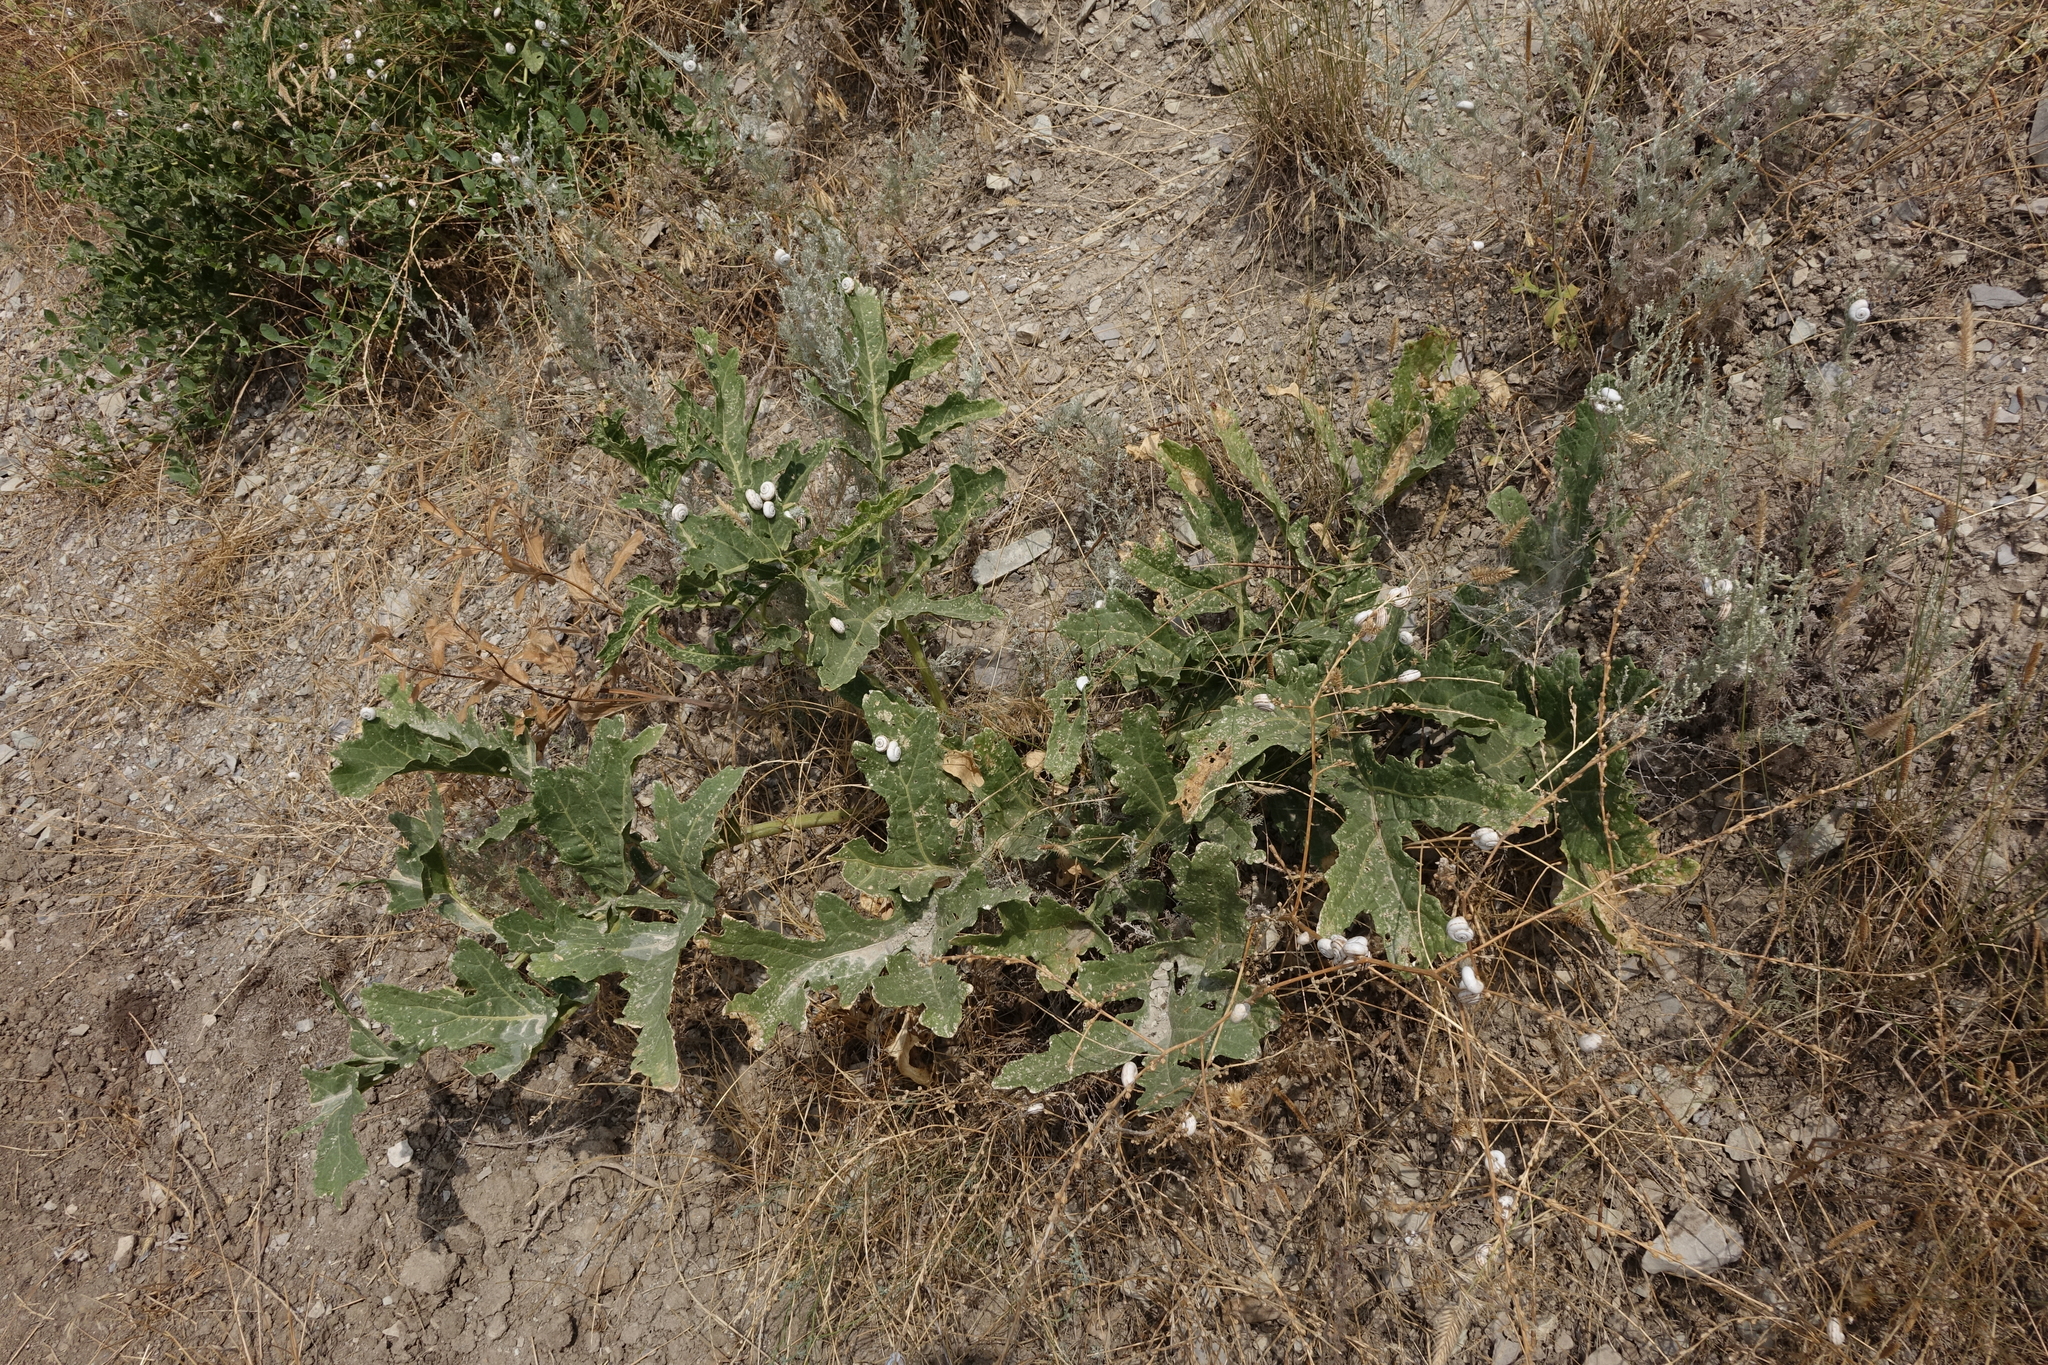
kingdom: Animalia
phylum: Mollusca
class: Gastropoda
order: Stylommatophora
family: Geomitridae
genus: Xeropicta
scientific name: Xeropicta derbentina
